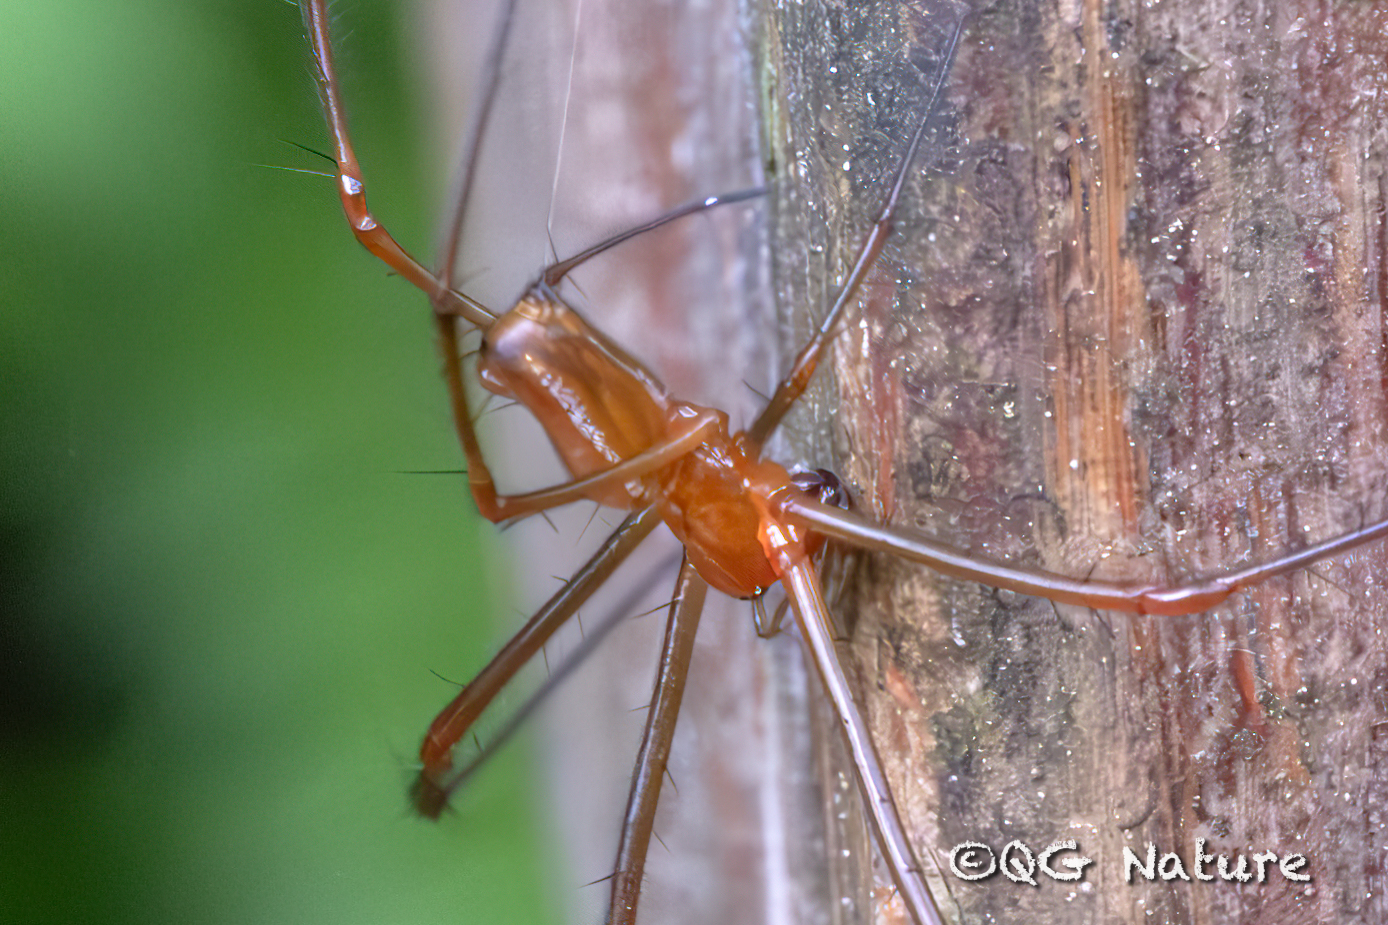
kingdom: Animalia
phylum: Arthropoda
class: Arachnida
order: Araneae
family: Tetragnathidae
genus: Leucauge
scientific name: Leucauge tessellata
